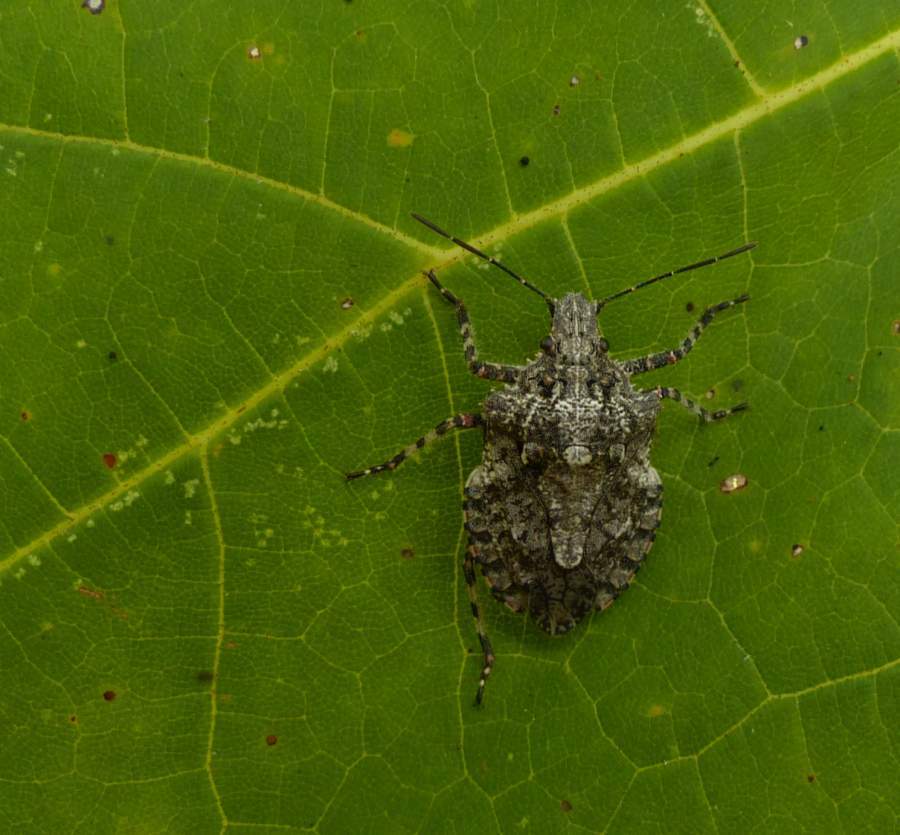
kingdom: Animalia
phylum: Arthropoda
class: Insecta
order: Hemiptera
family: Pentatomidae
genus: Brochymena
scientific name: Brochymena arborea
